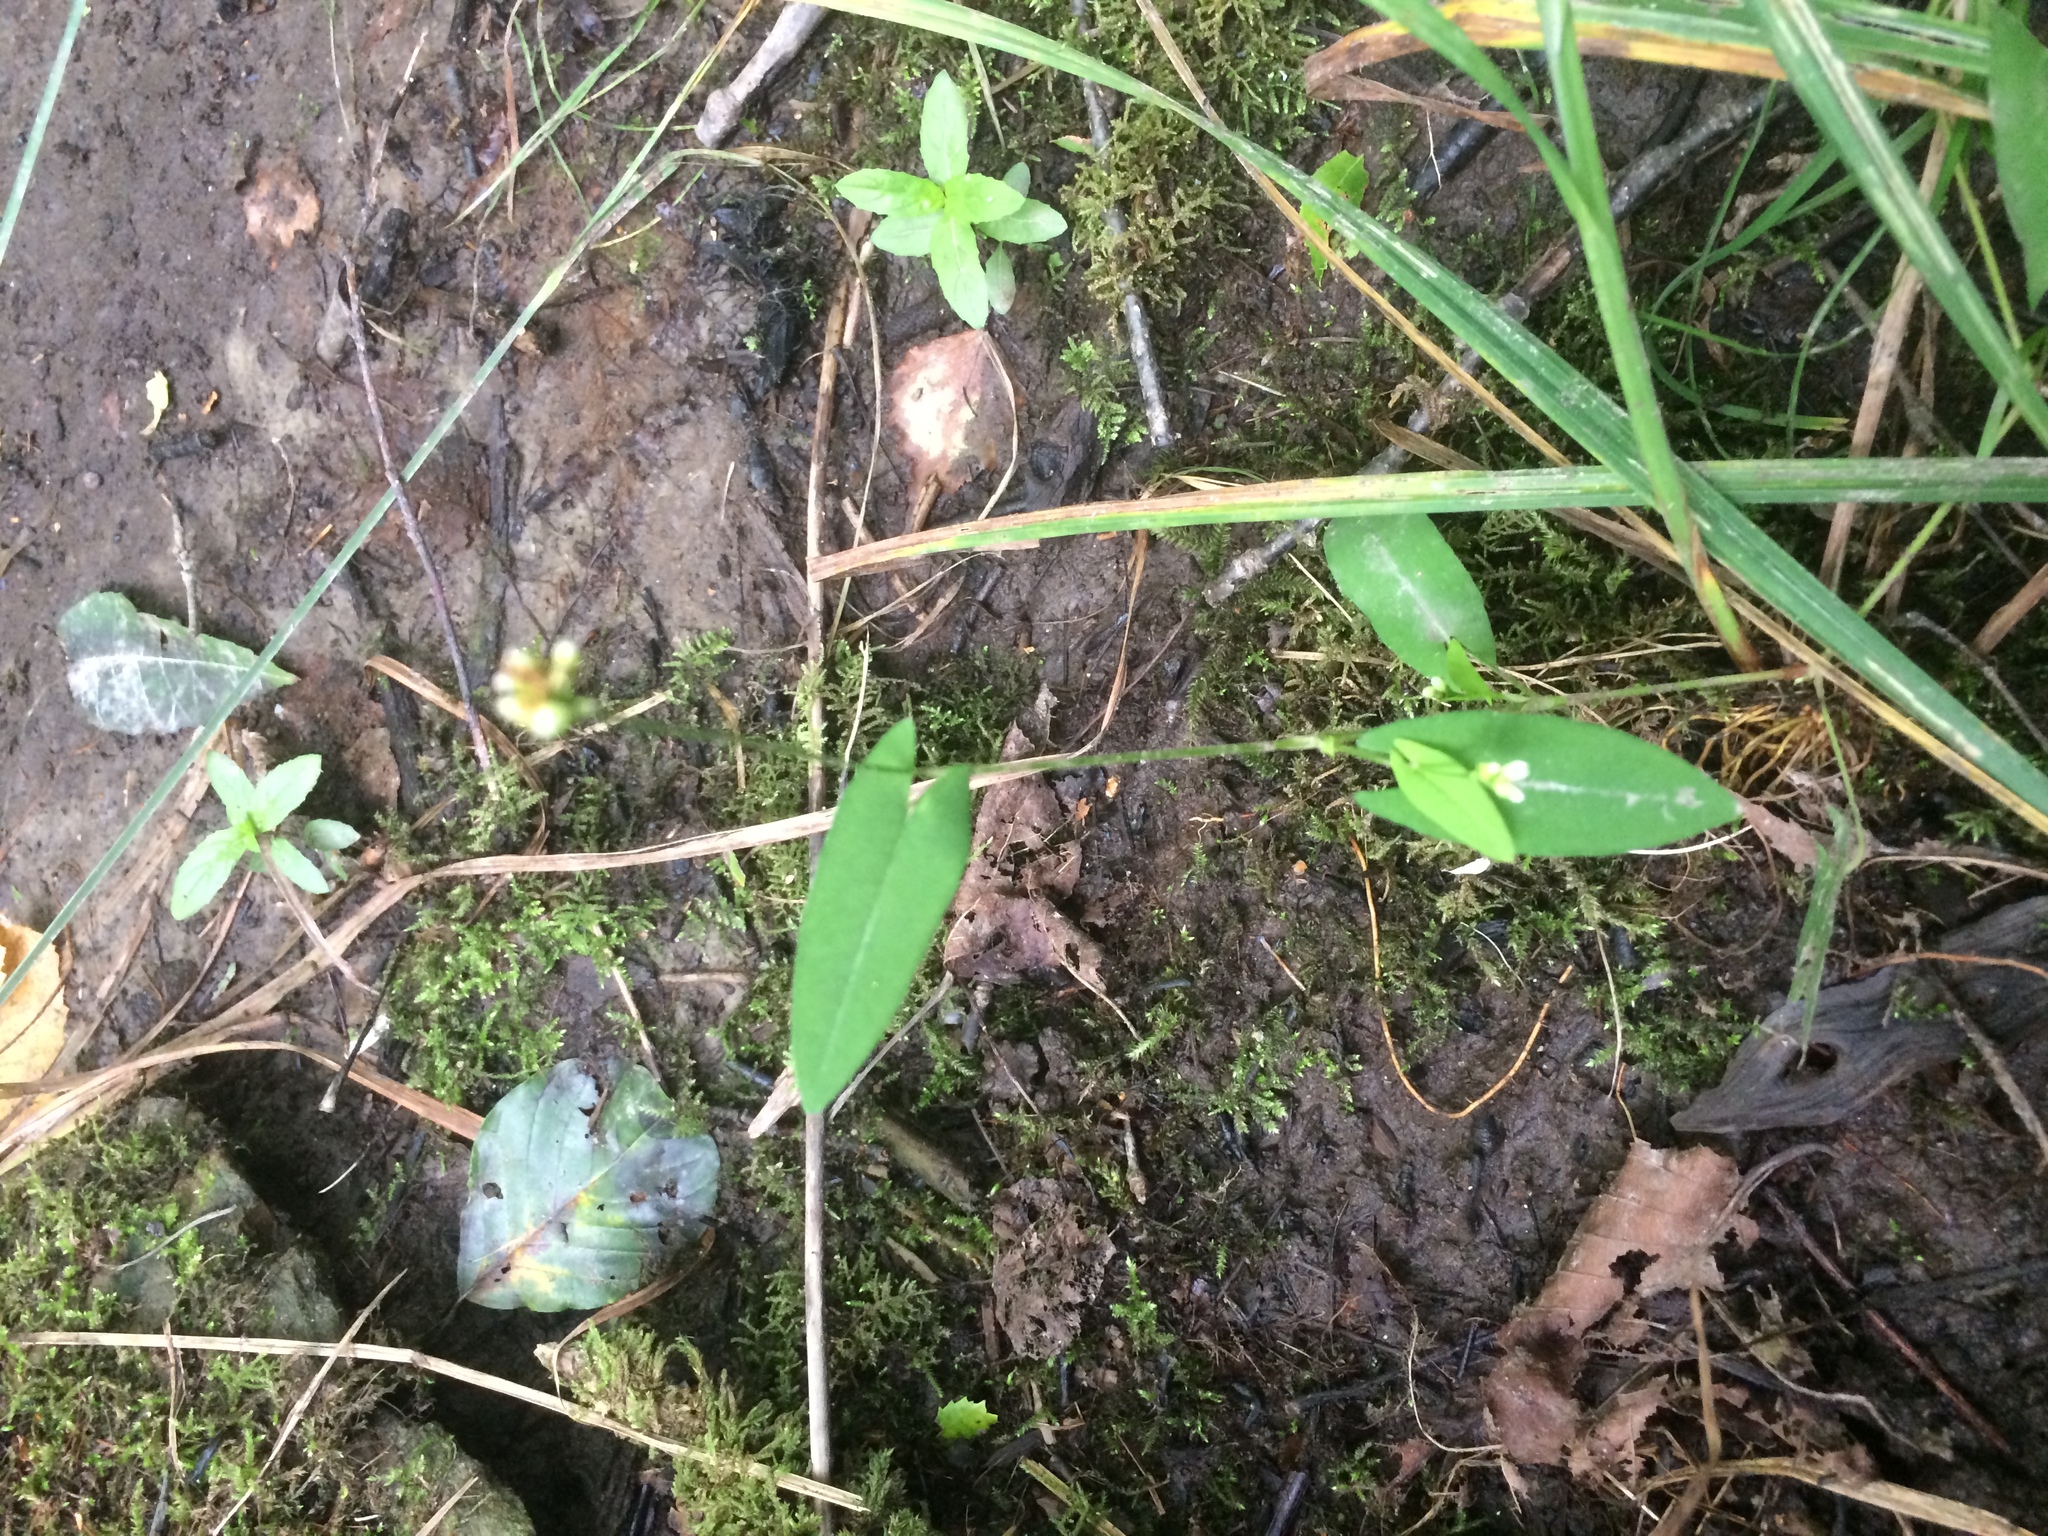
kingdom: Plantae
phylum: Tracheophyta
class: Magnoliopsida
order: Caryophyllales
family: Polygonaceae
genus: Persicaria
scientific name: Persicaria sagittata
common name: American tearthumb
